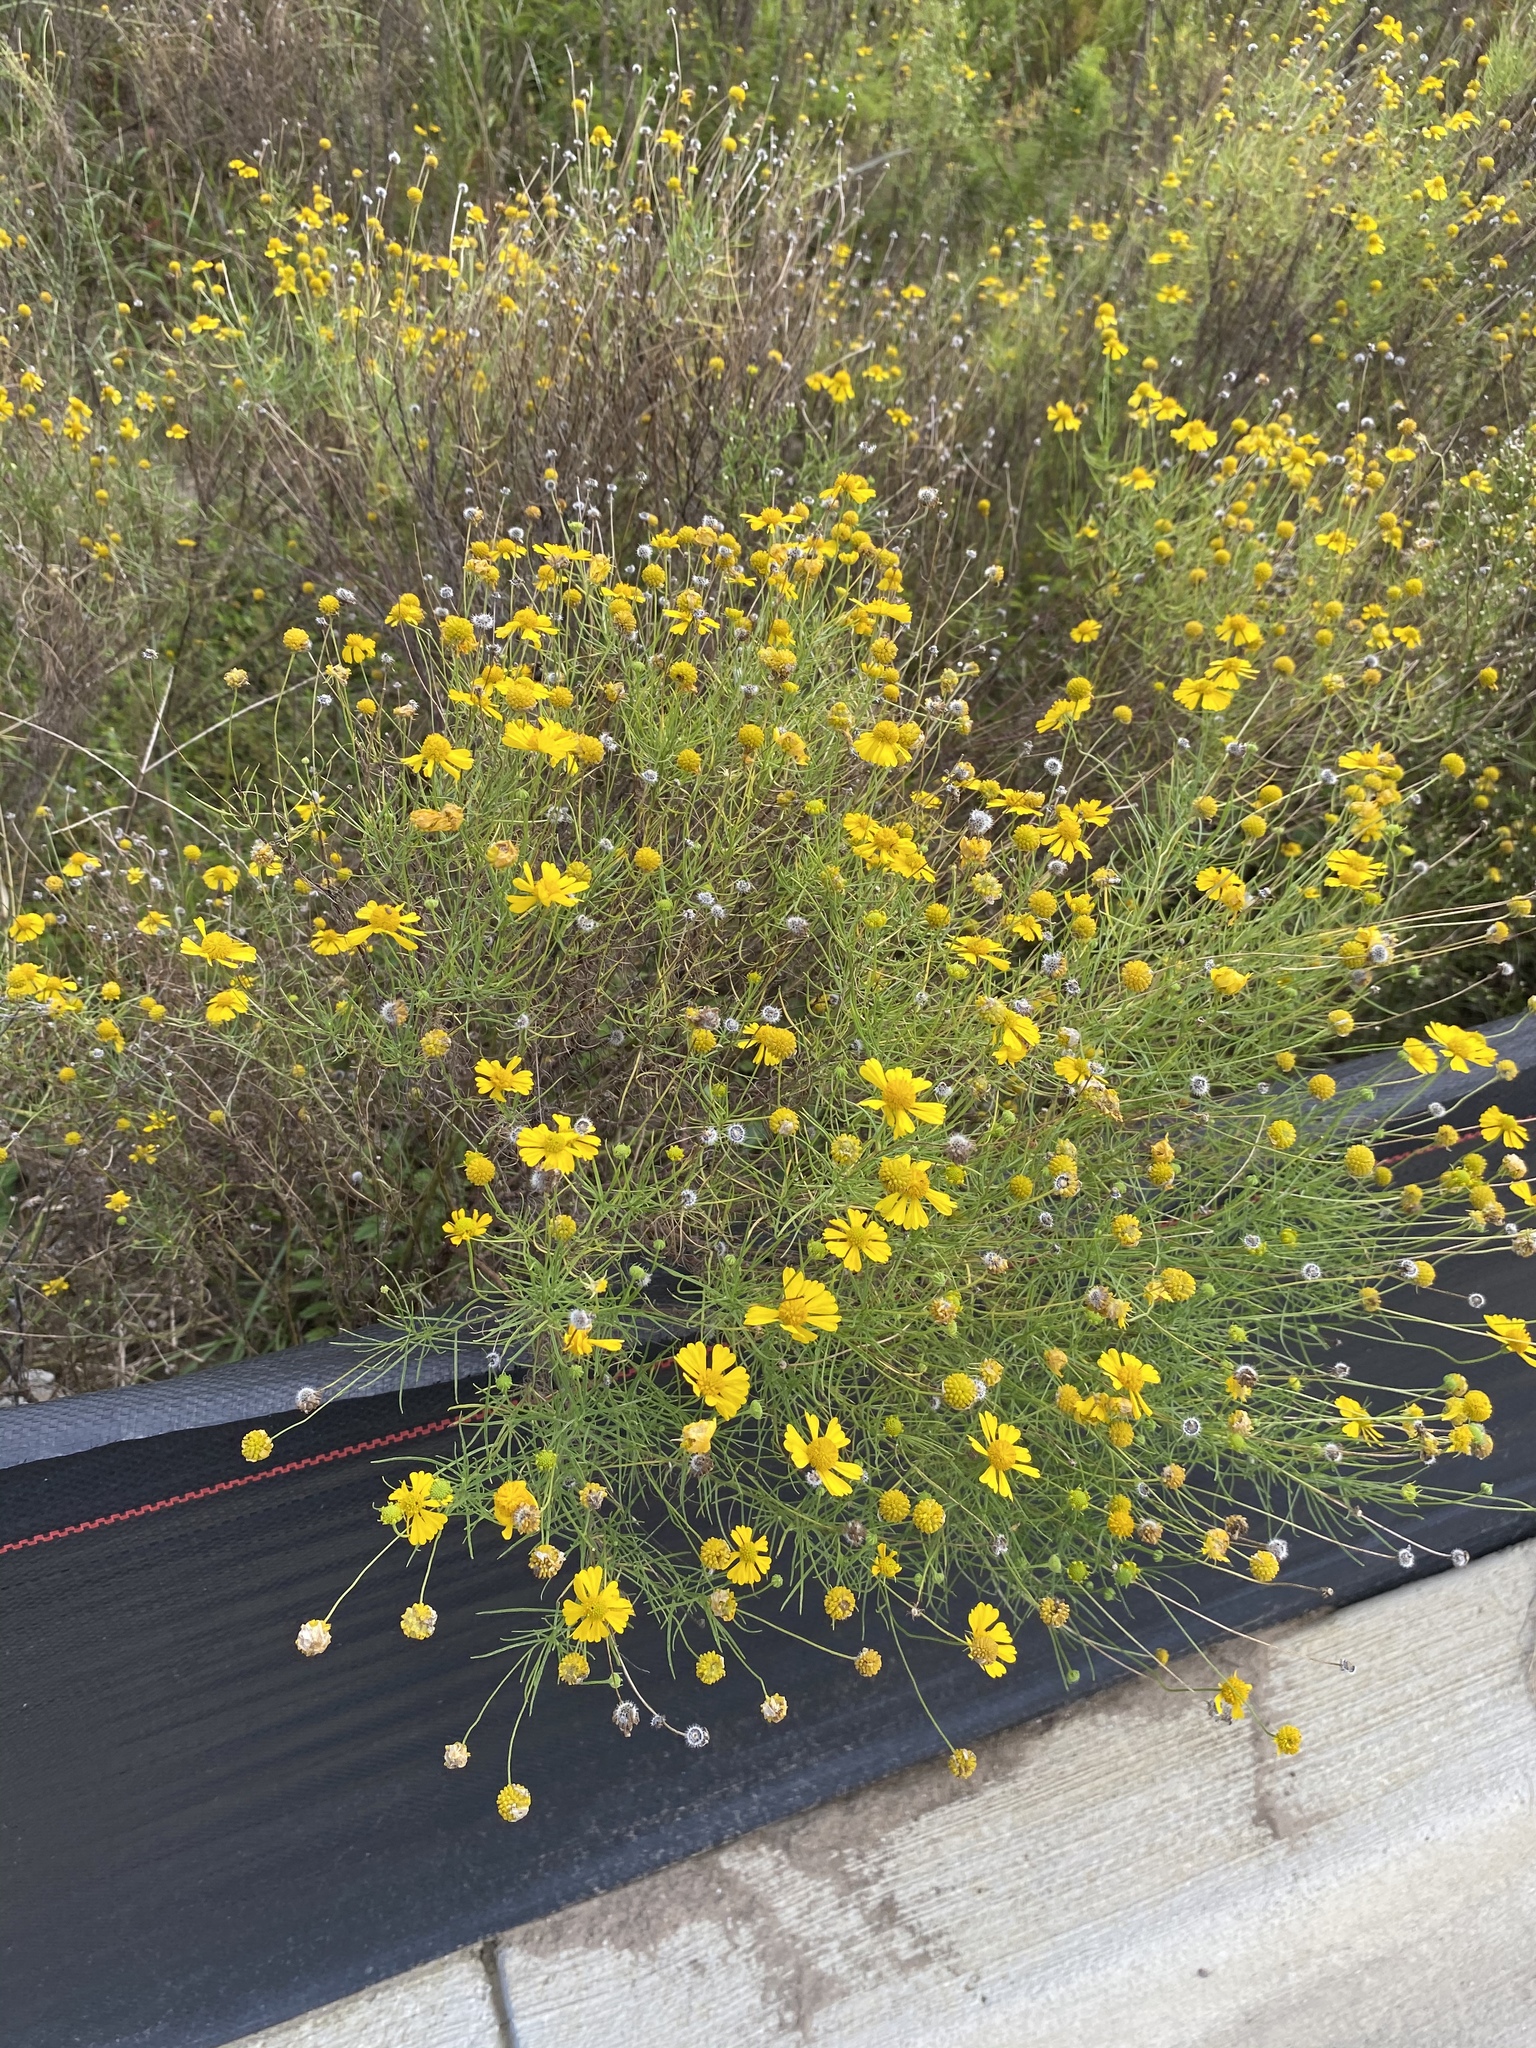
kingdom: Plantae
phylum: Tracheophyta
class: Magnoliopsida
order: Asterales
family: Asteraceae
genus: Helenium
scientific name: Helenium amarum
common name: Bitter sneezeweed
